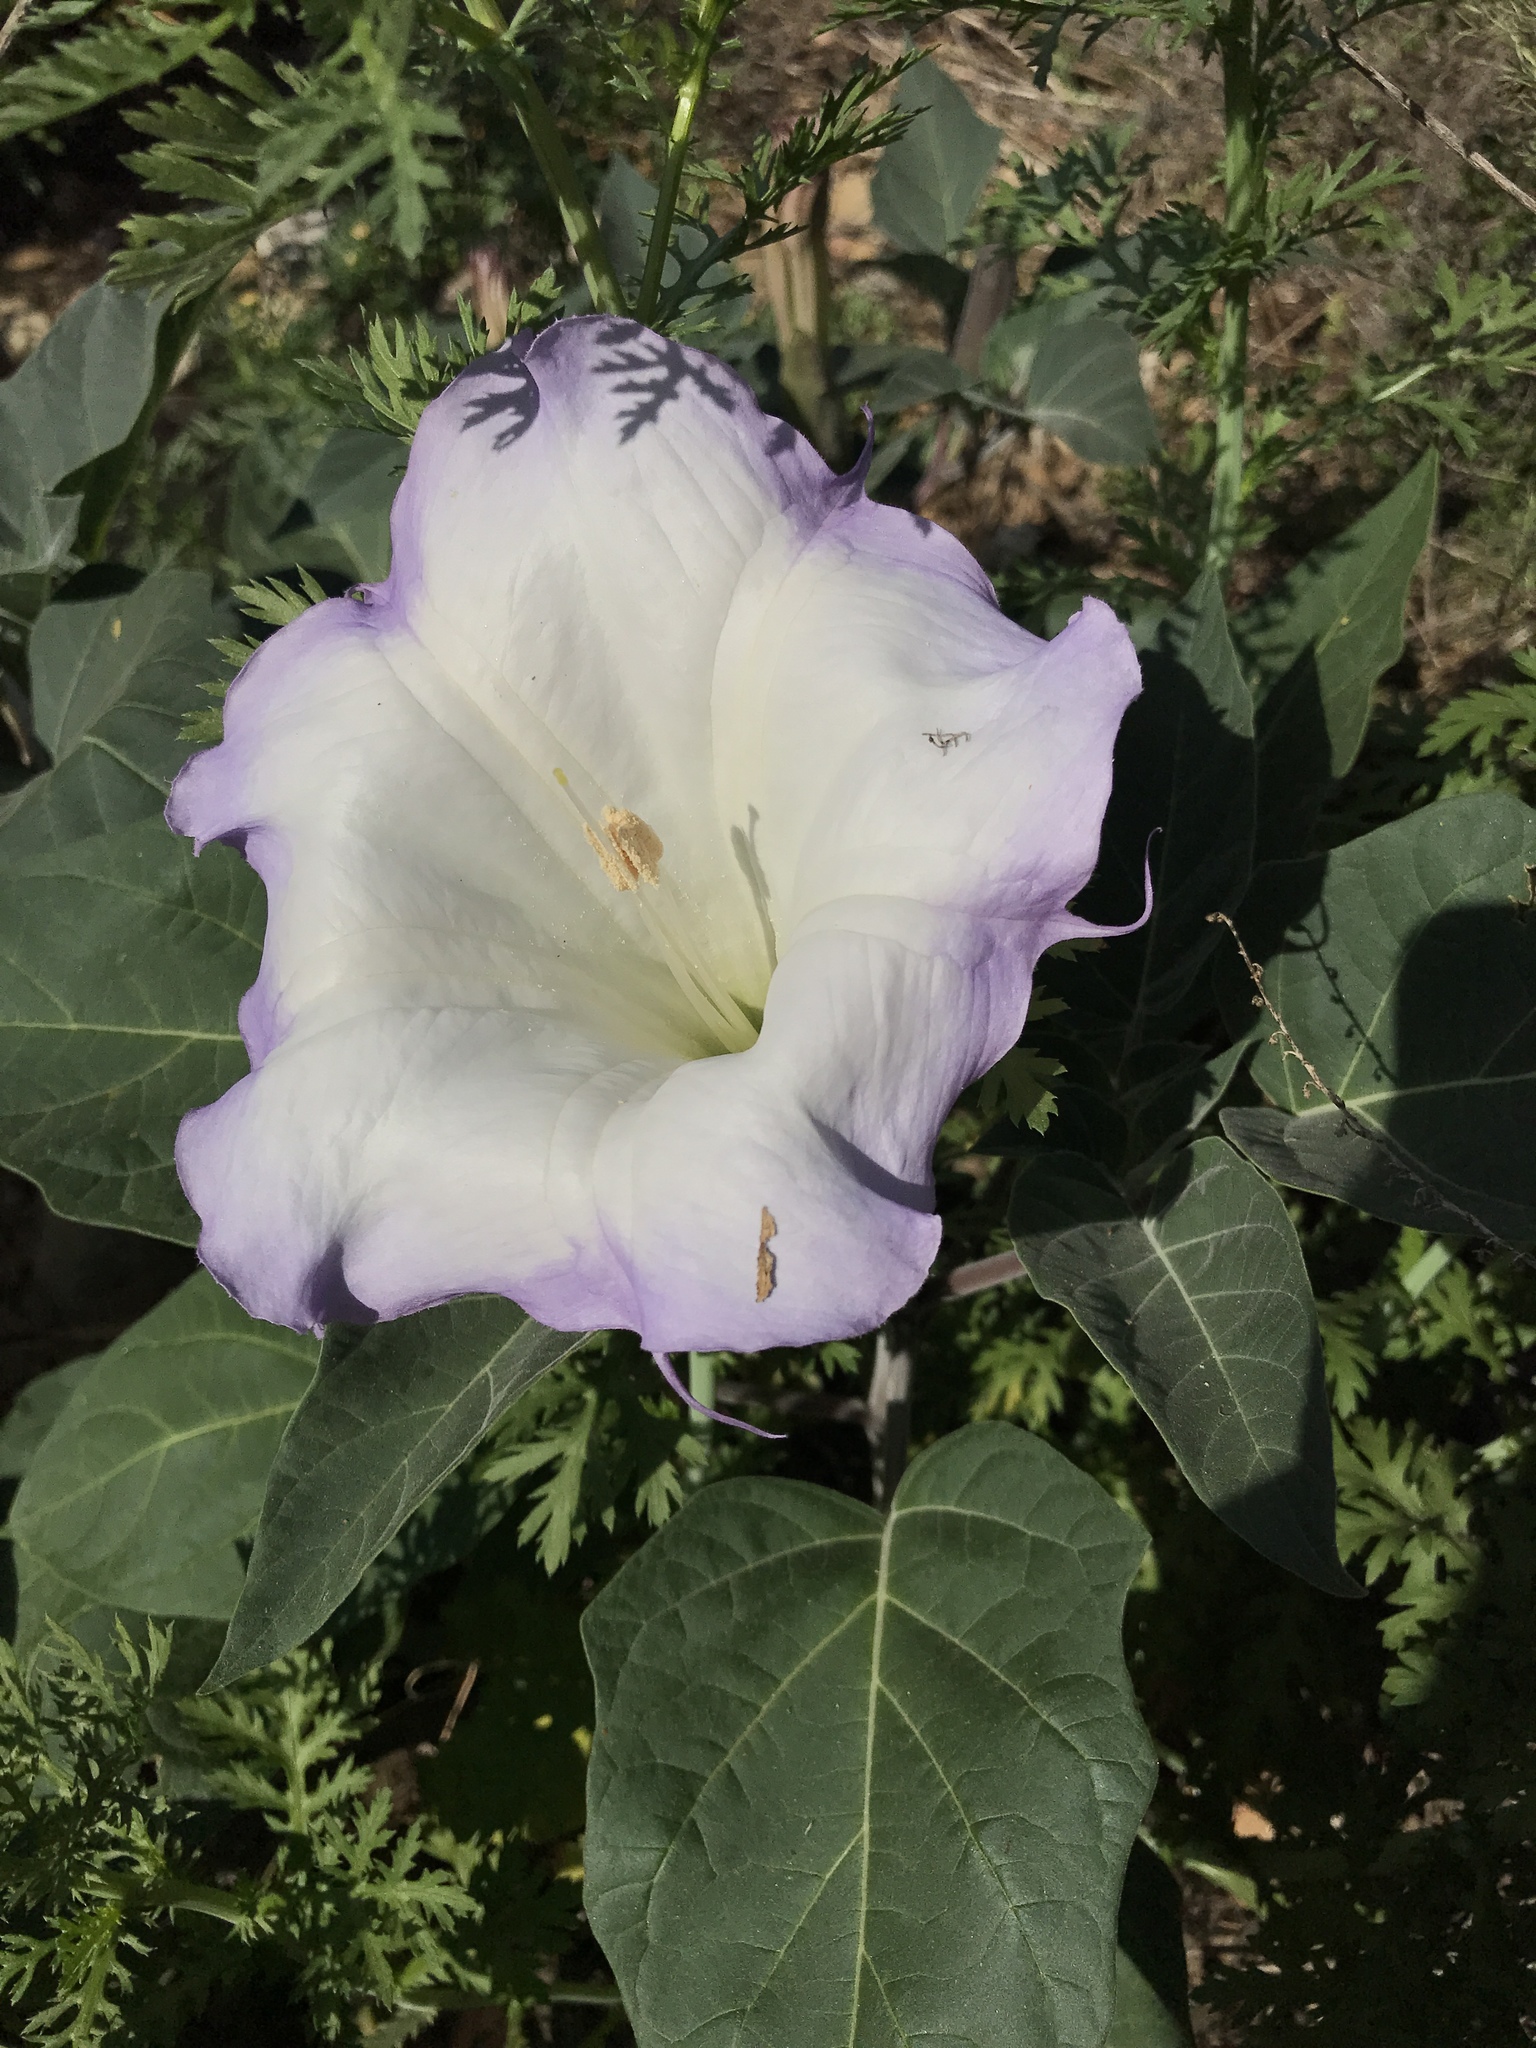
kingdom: Plantae
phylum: Tracheophyta
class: Magnoliopsida
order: Solanales
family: Solanaceae
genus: Datura
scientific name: Datura wrightii
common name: Sacred thorn-apple
